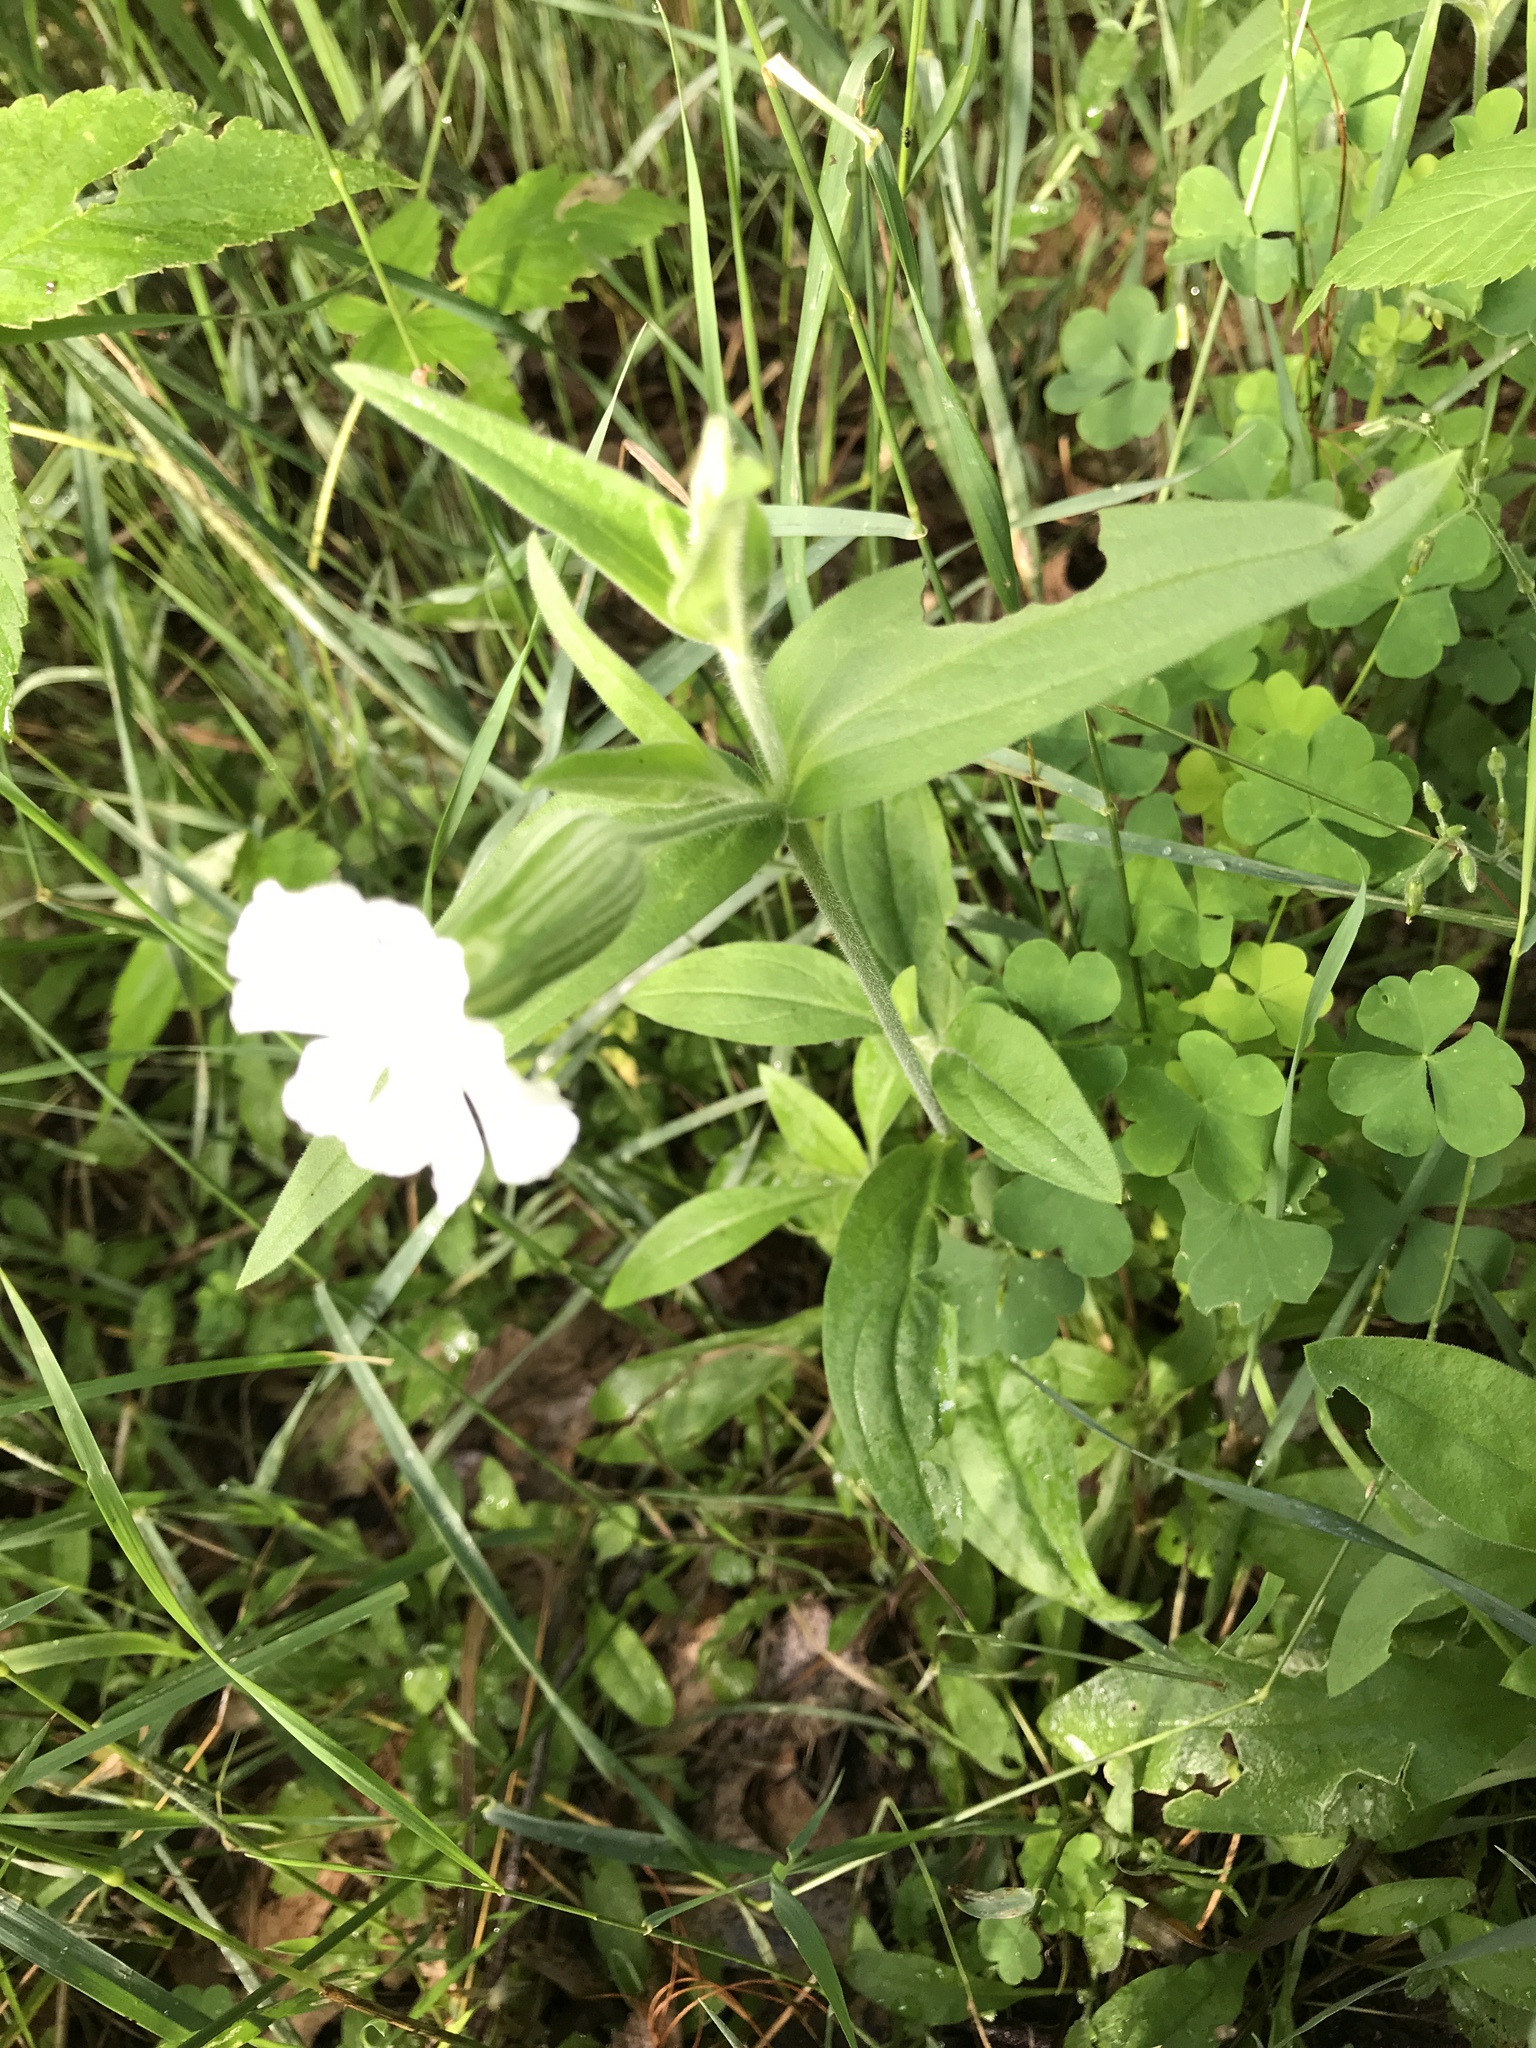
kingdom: Plantae
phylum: Tracheophyta
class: Magnoliopsida
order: Caryophyllales
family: Caryophyllaceae
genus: Silene
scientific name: Silene latifolia
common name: White campion
